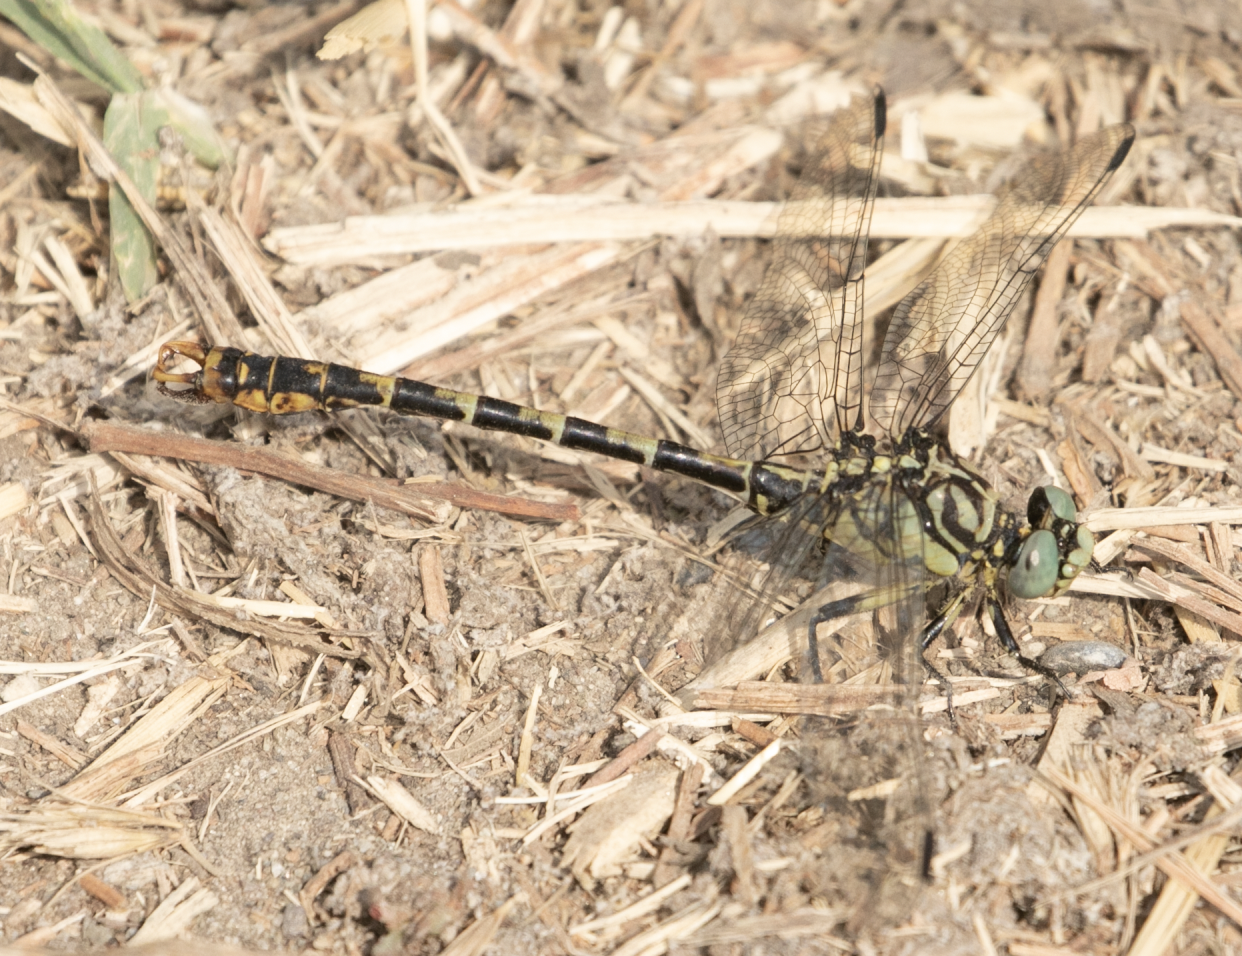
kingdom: Animalia
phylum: Arthropoda
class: Insecta
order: Odonata
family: Gomphidae
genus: Onychogomphus
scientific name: Onychogomphus forcipatus
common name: Small pincertail
